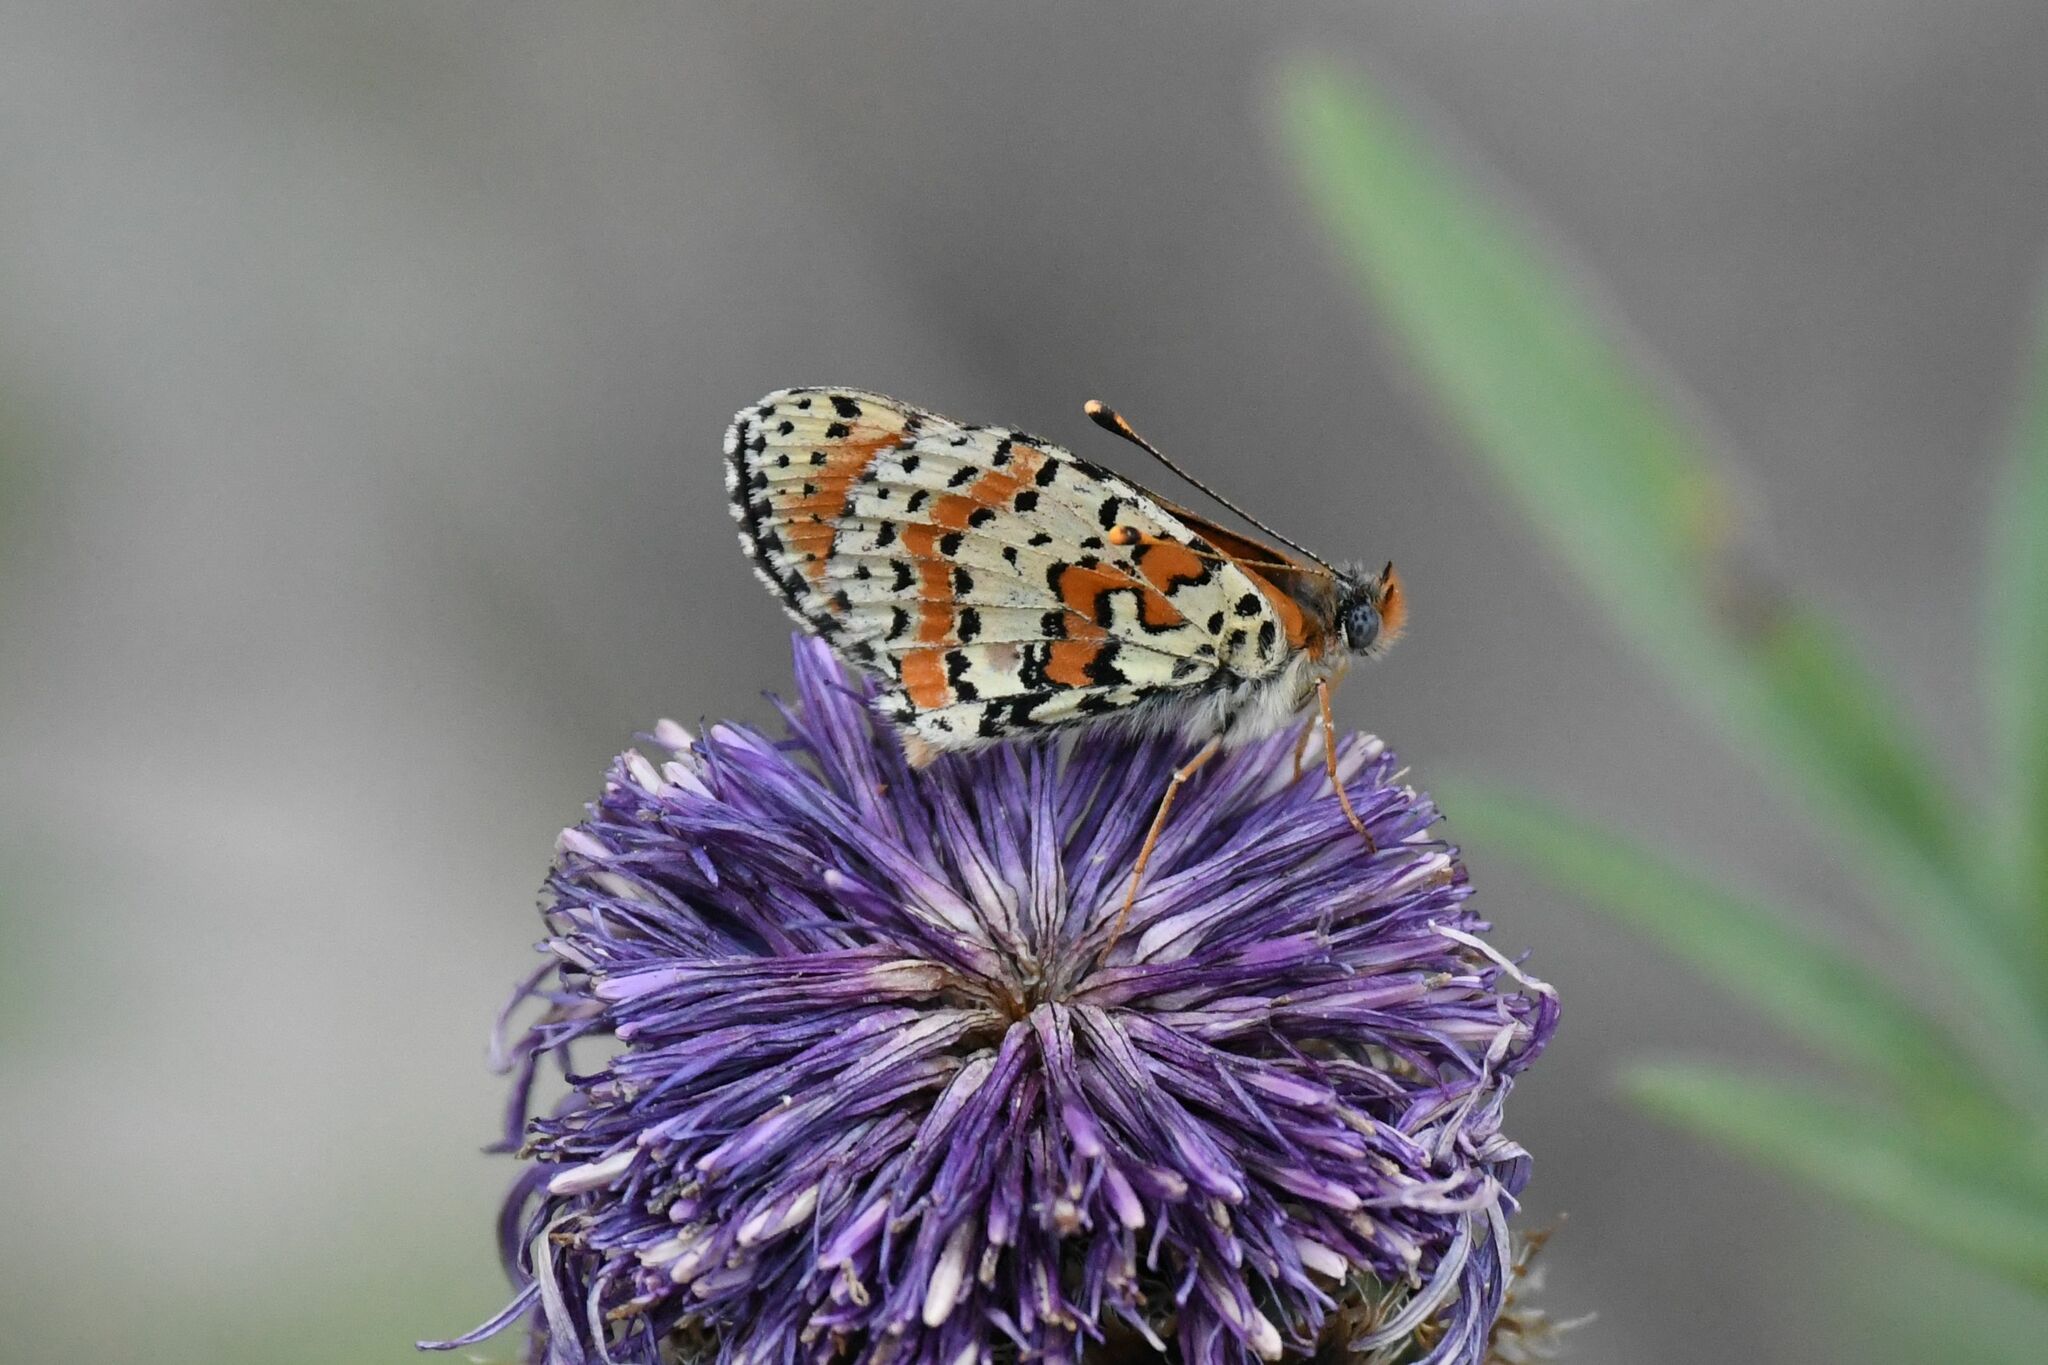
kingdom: Animalia
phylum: Arthropoda
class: Insecta
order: Lepidoptera
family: Nymphalidae
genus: Melitaea
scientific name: Melitaea didyma
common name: Spotted fritillary
